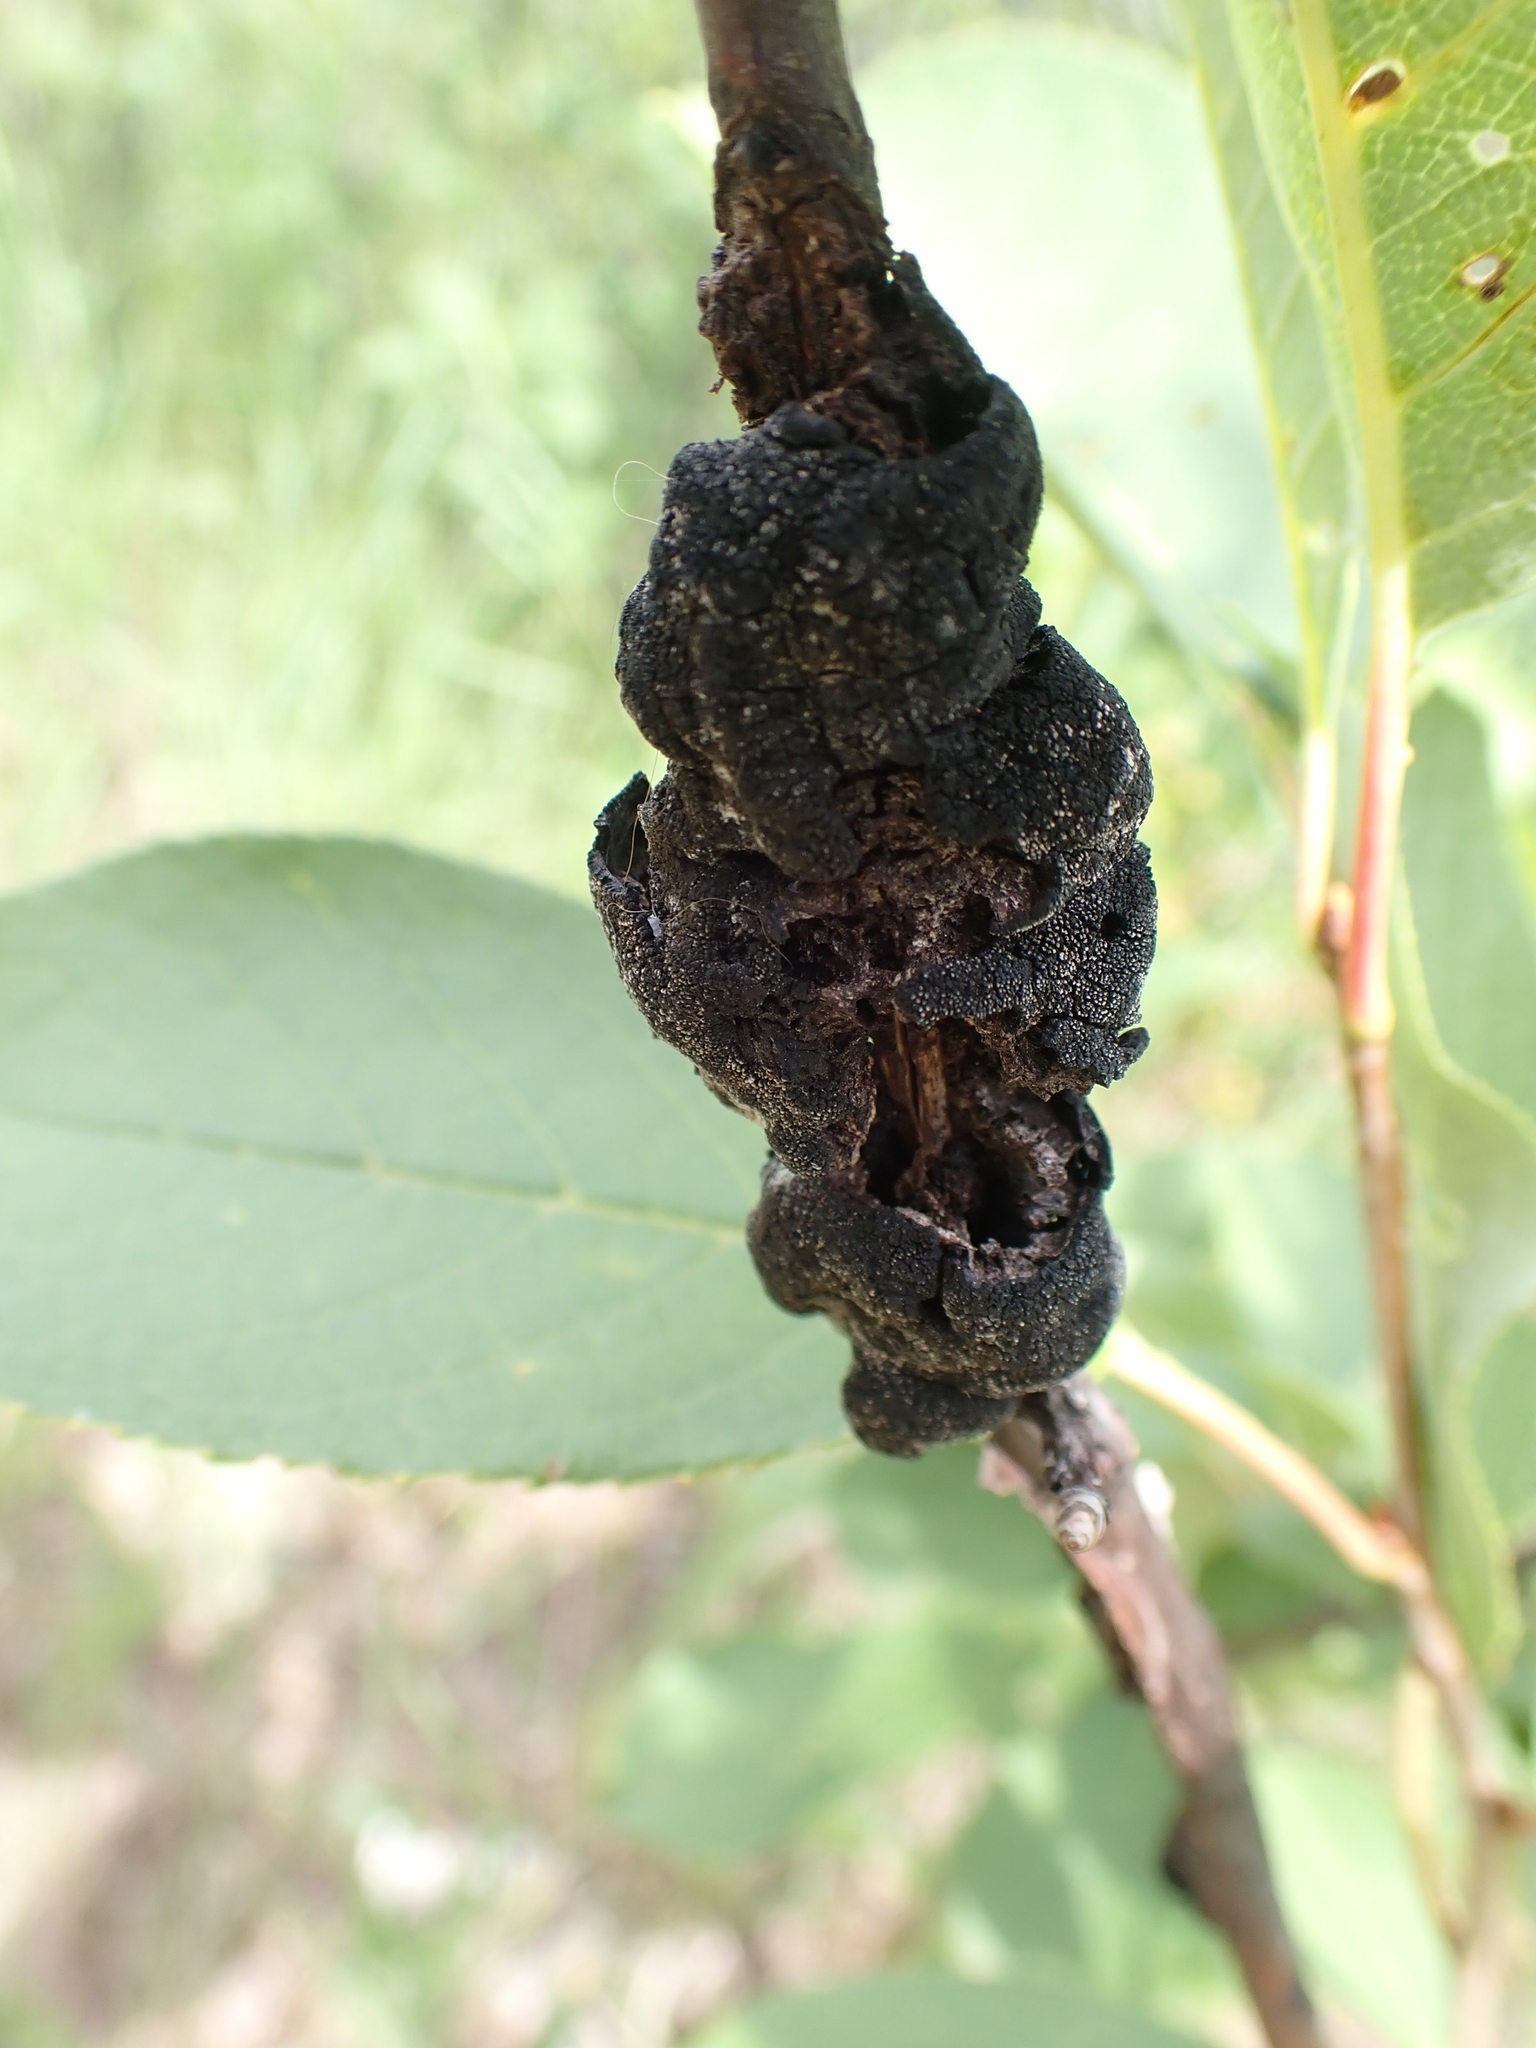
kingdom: Fungi
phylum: Ascomycota
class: Dothideomycetes
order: Venturiales
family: Venturiaceae
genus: Apiosporina
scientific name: Apiosporina morbosa
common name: Black knot
